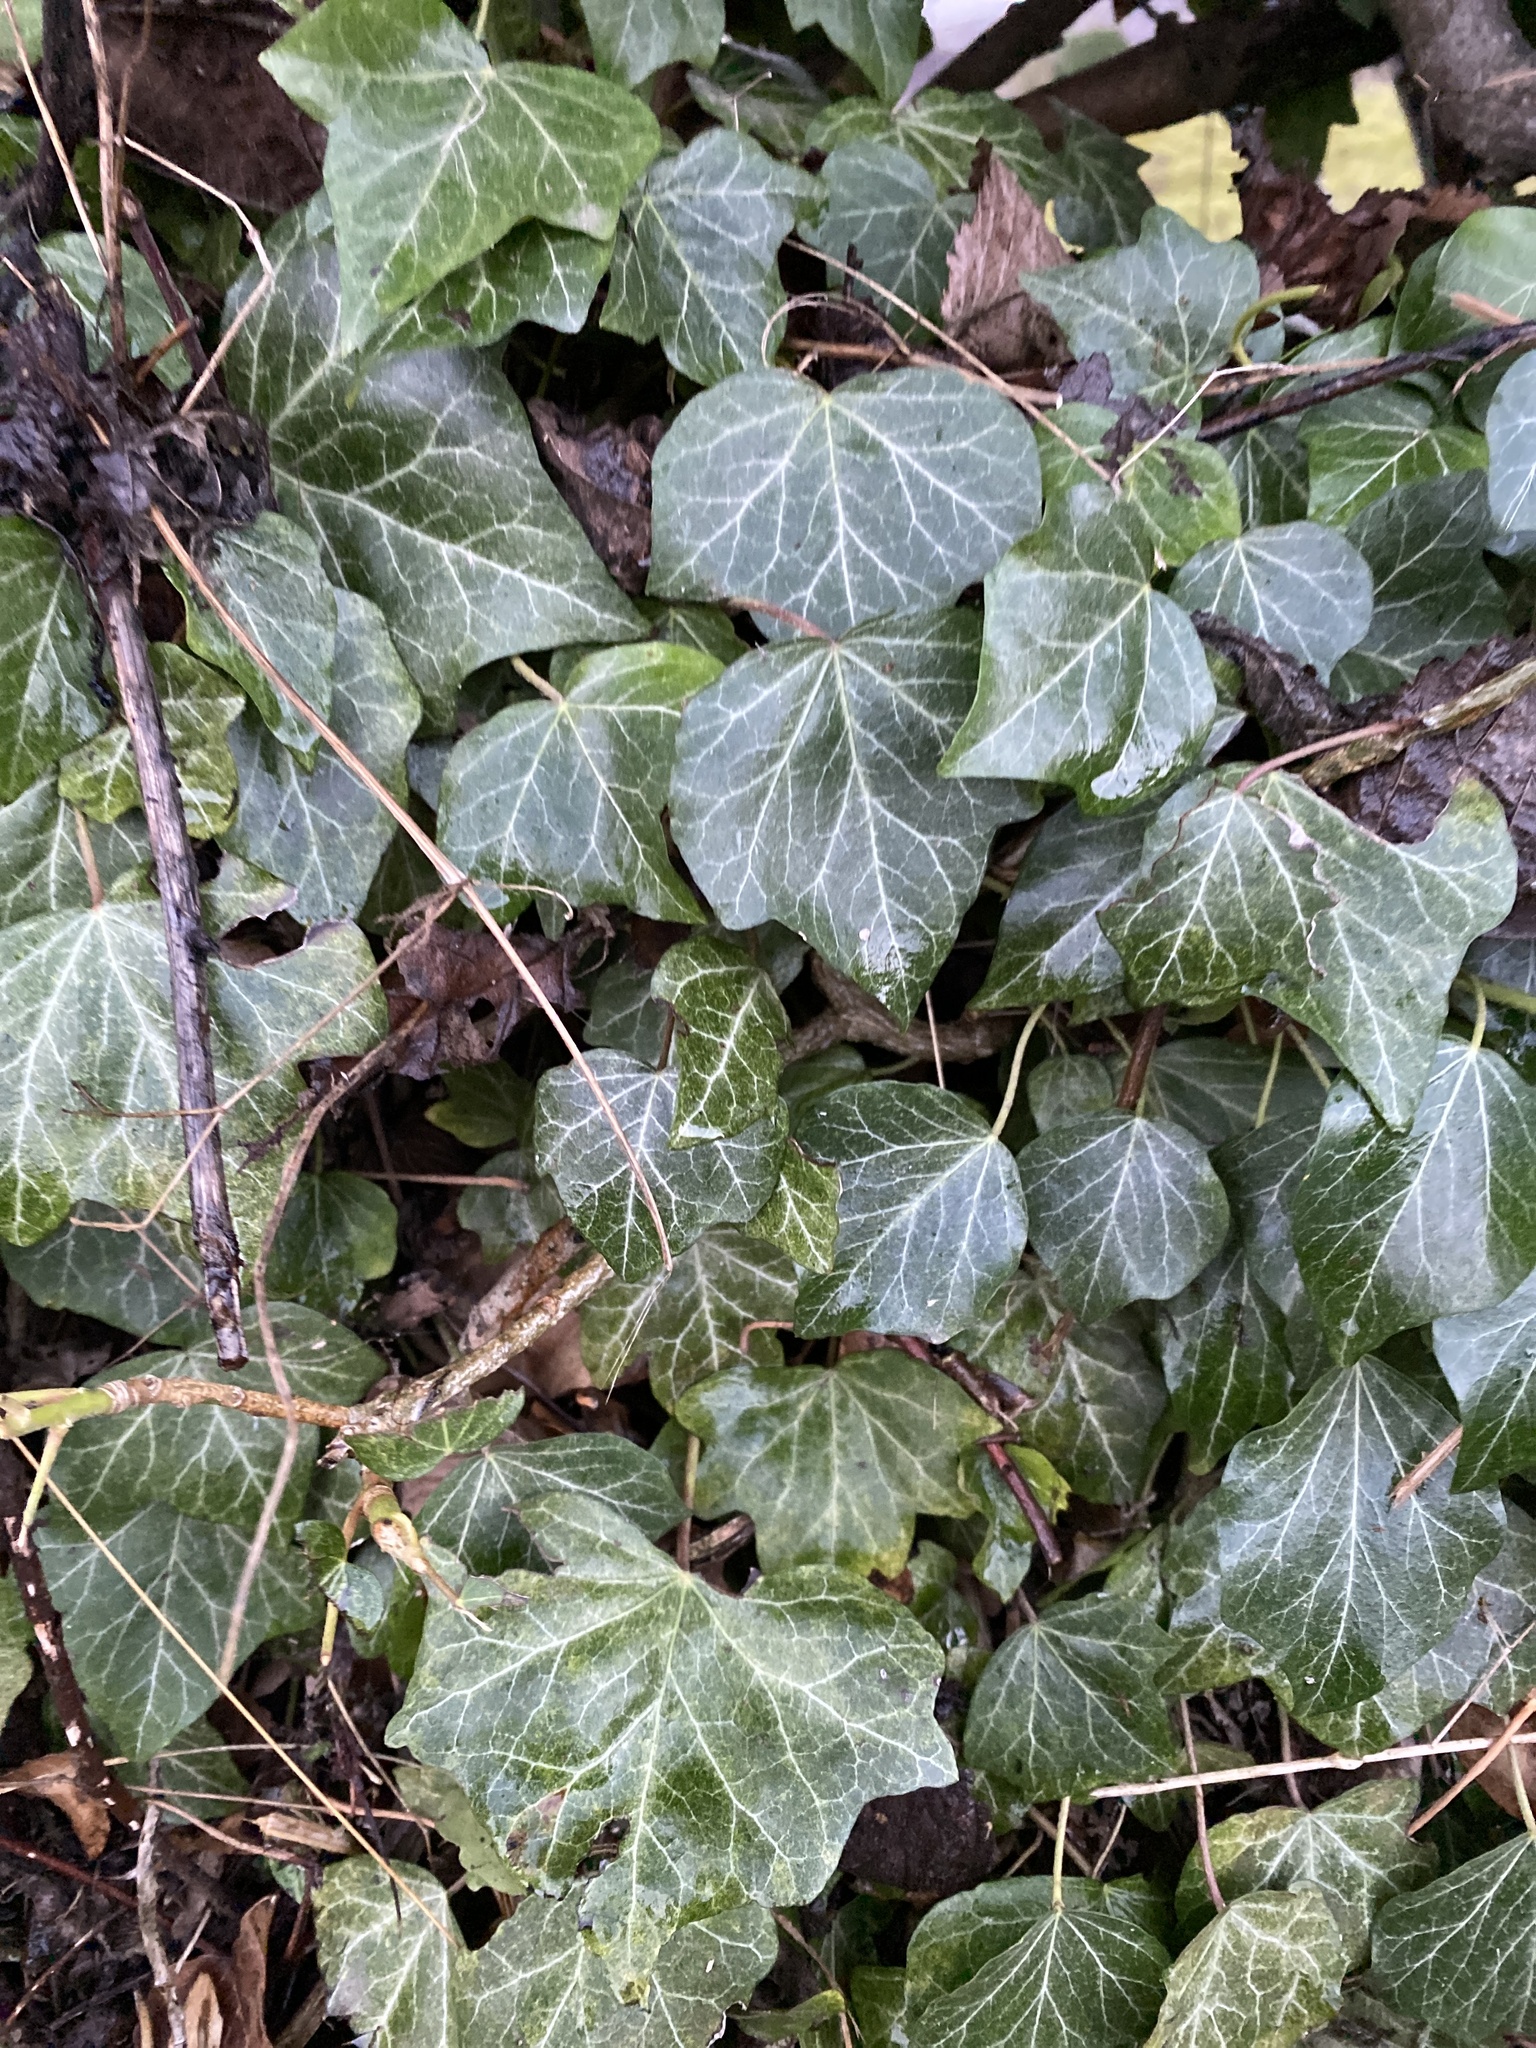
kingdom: Plantae
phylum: Tracheophyta
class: Magnoliopsida
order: Apiales
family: Araliaceae
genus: Hedera
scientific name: Hedera helix
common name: Ivy
